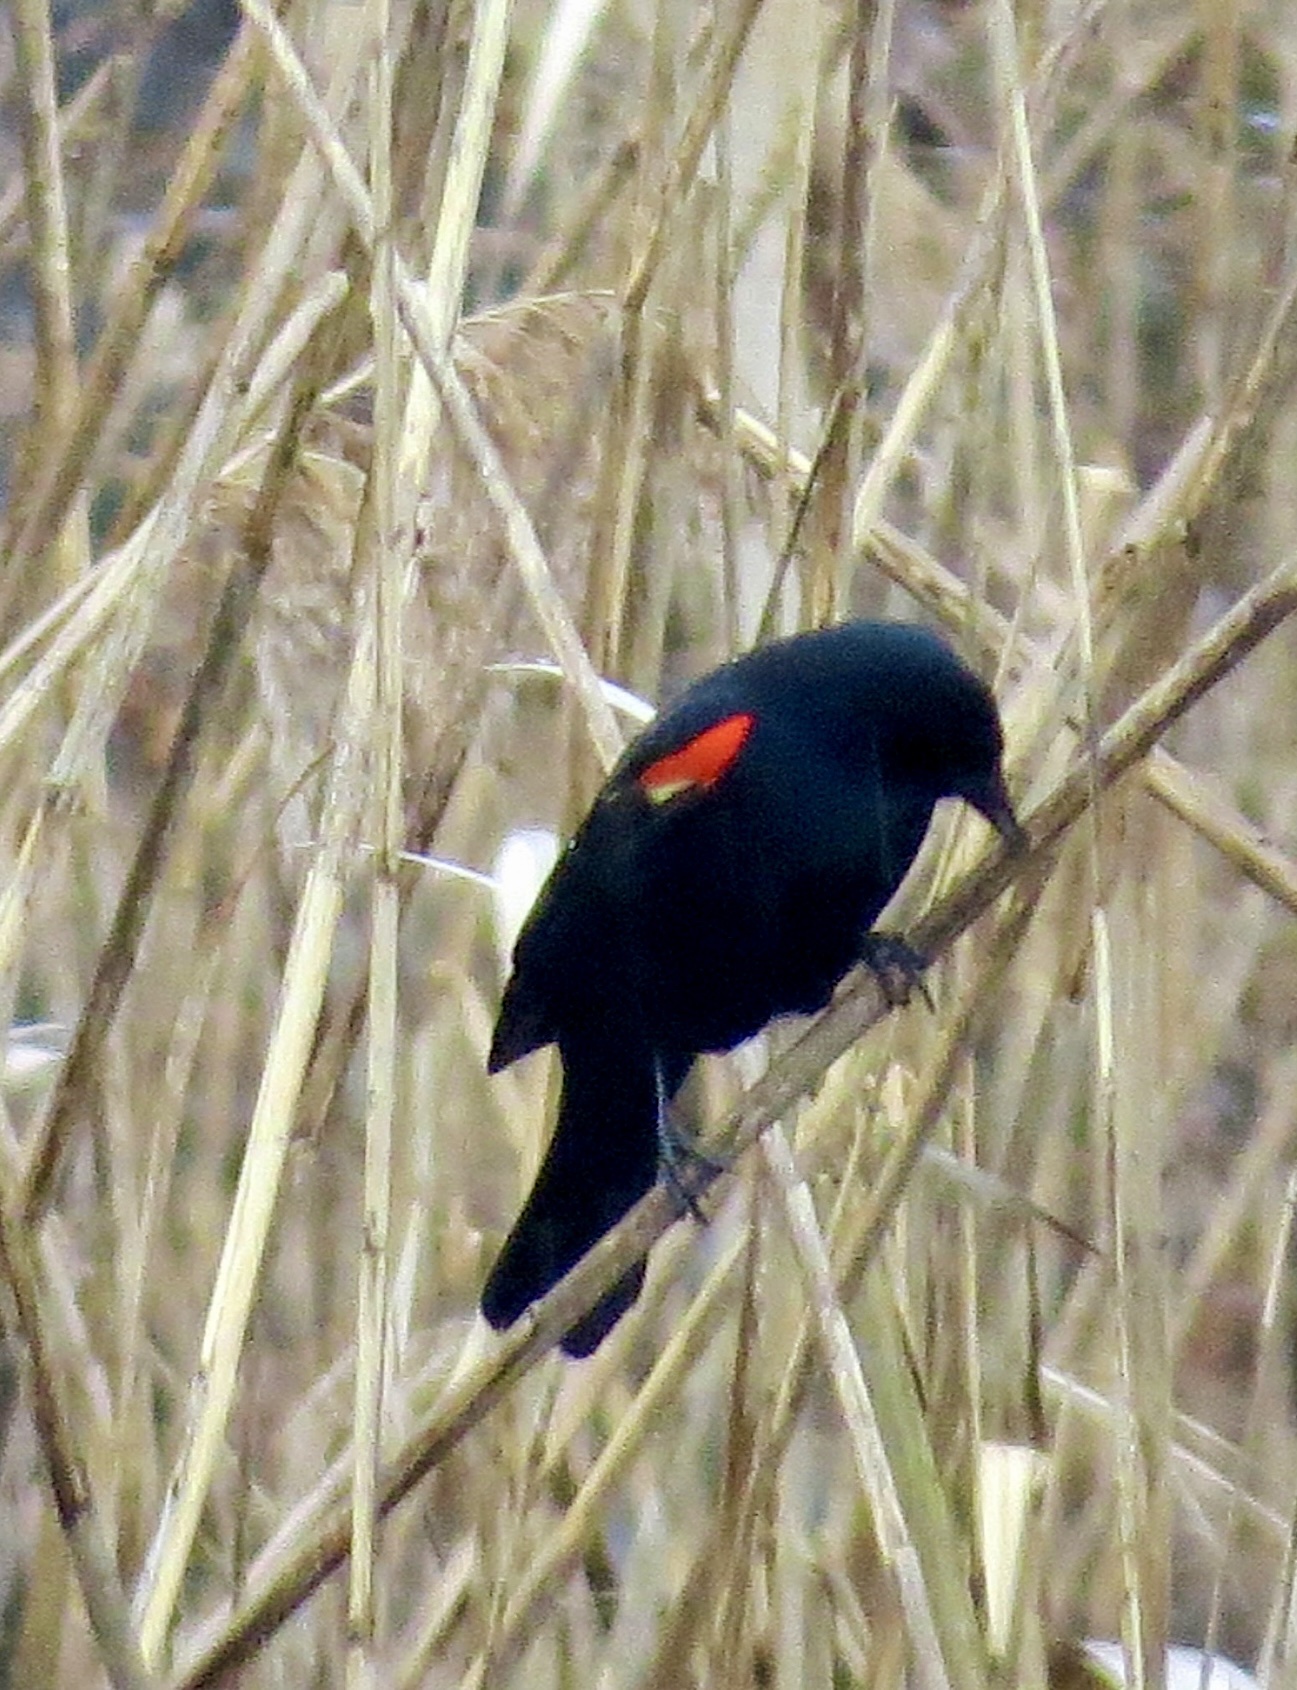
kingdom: Animalia
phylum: Chordata
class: Aves
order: Passeriformes
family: Icteridae
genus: Agelaius
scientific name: Agelaius phoeniceus
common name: Red-winged blackbird
